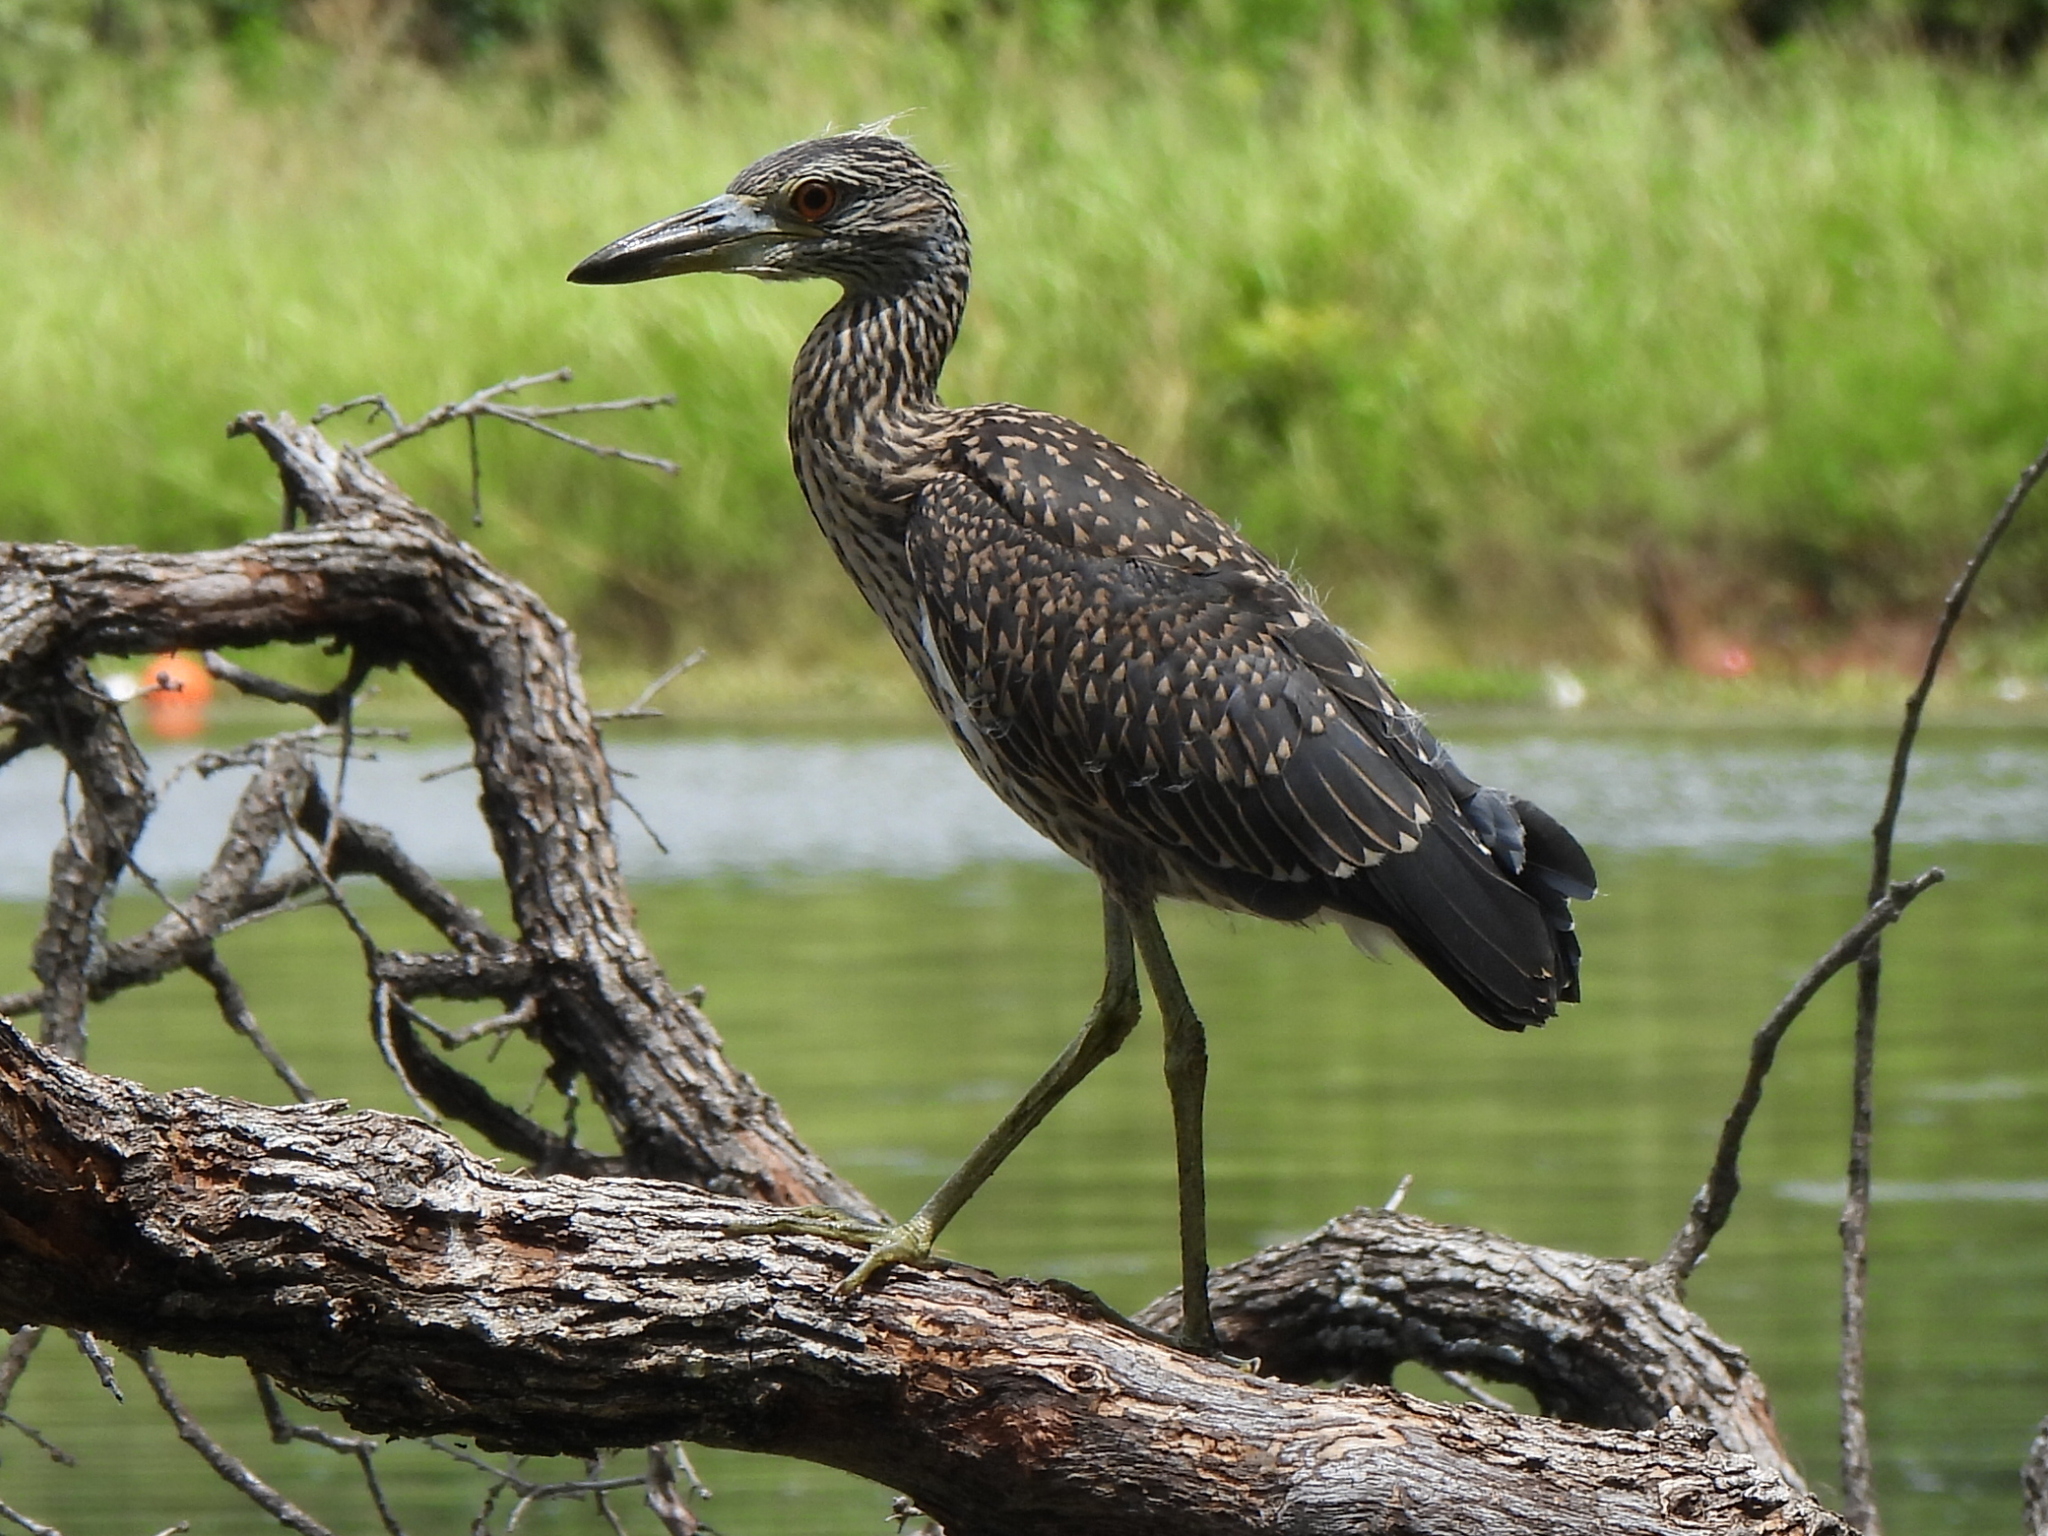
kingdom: Animalia
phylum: Chordata
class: Aves
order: Pelecaniformes
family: Ardeidae
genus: Nyctanassa
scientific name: Nyctanassa violacea
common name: Yellow-crowned night heron
